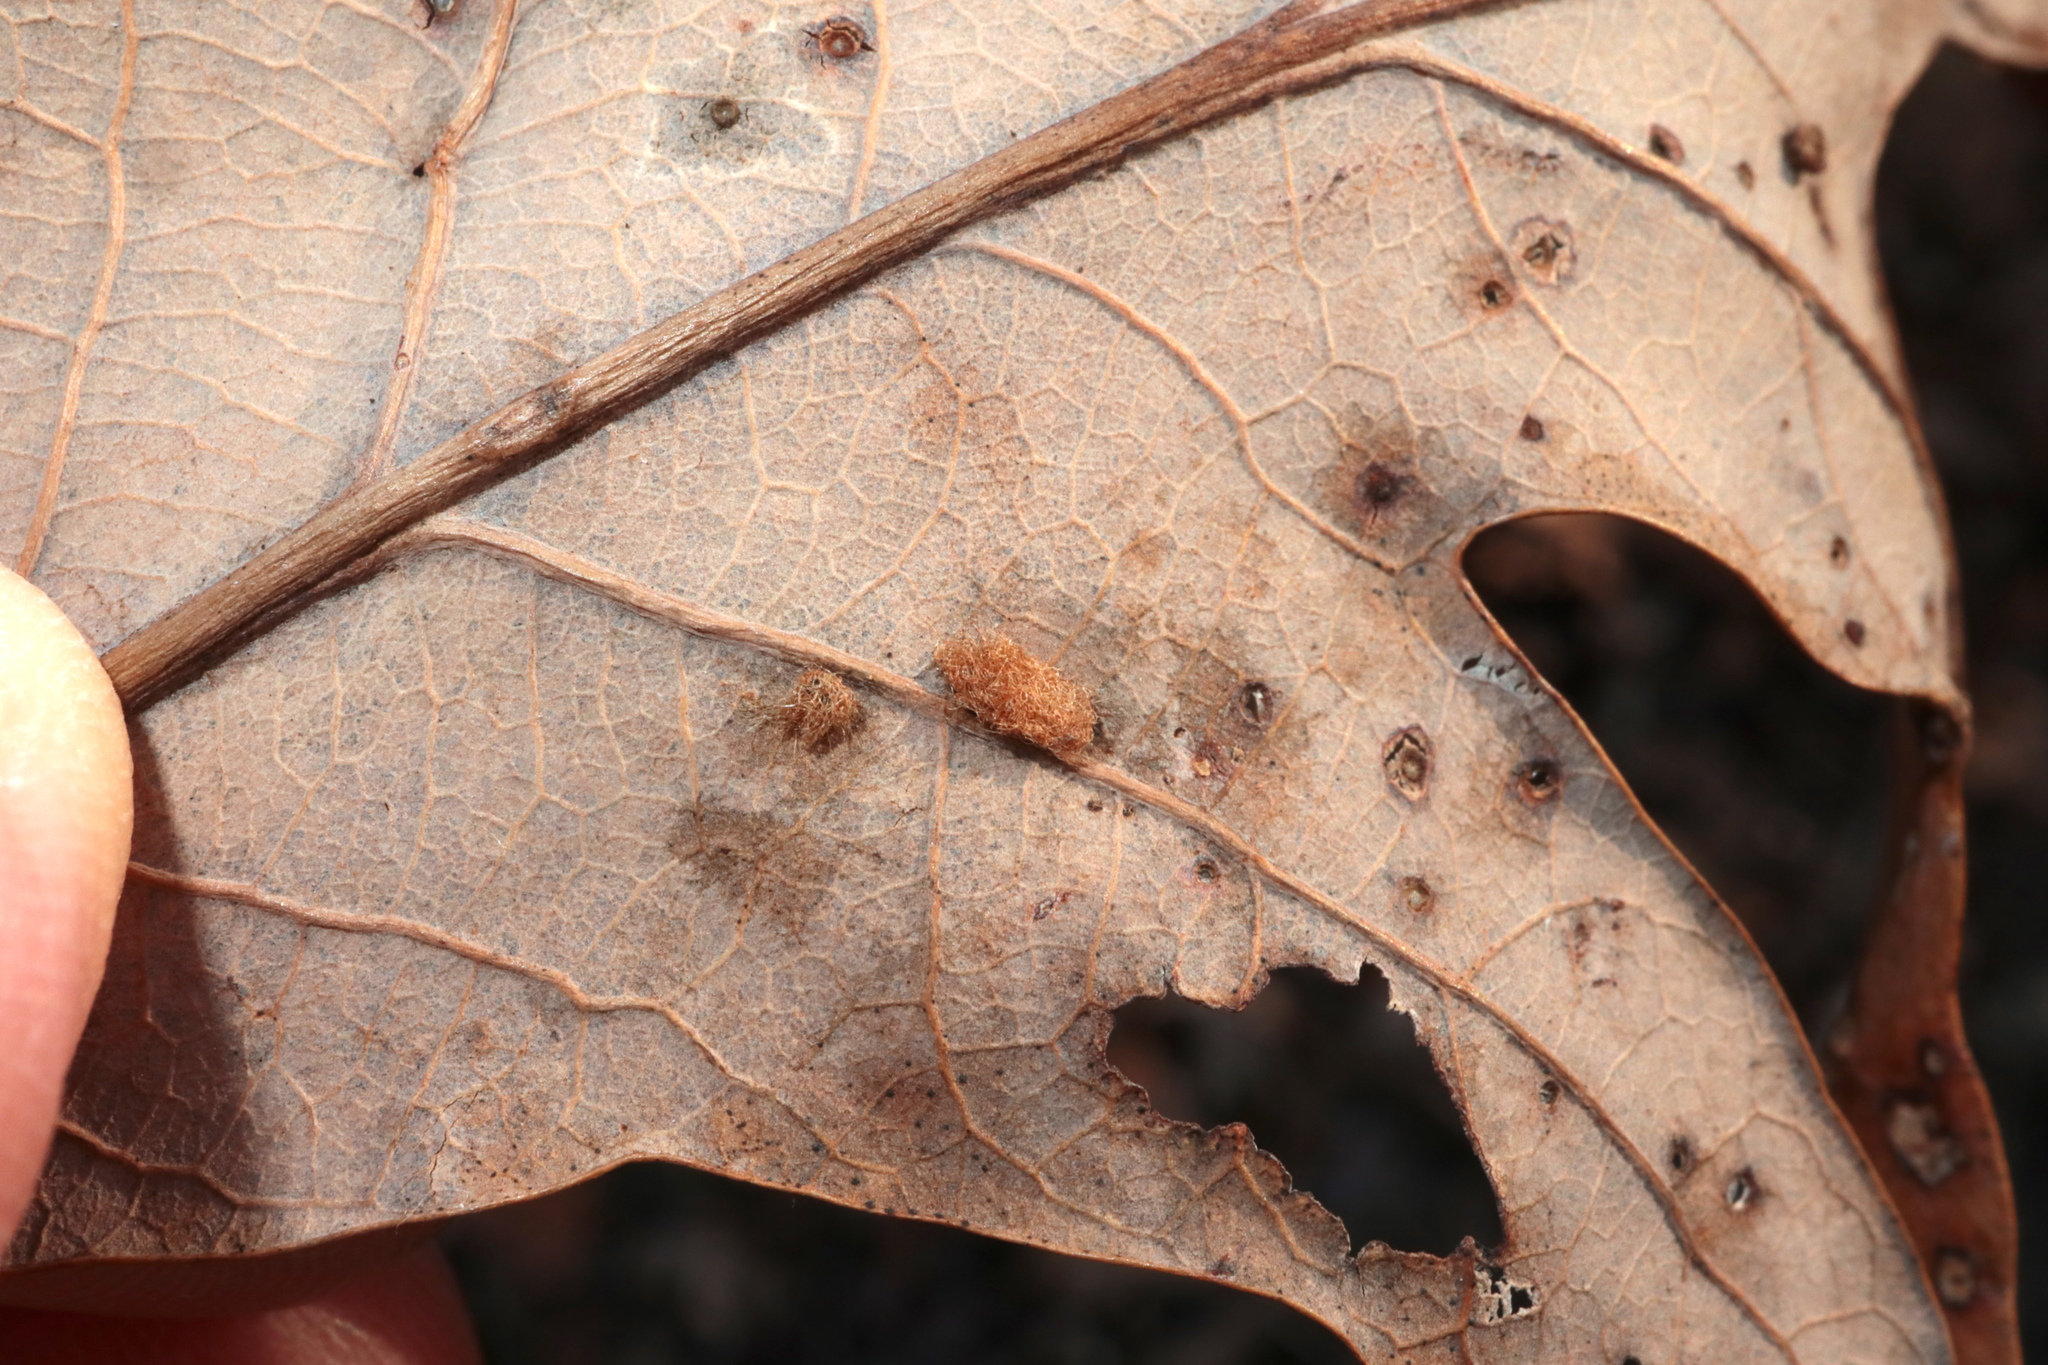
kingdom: Animalia
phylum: Arthropoda
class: Insecta
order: Hymenoptera
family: Cynipidae
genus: Neuroterus
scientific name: Neuroterus quercusverrucarum
